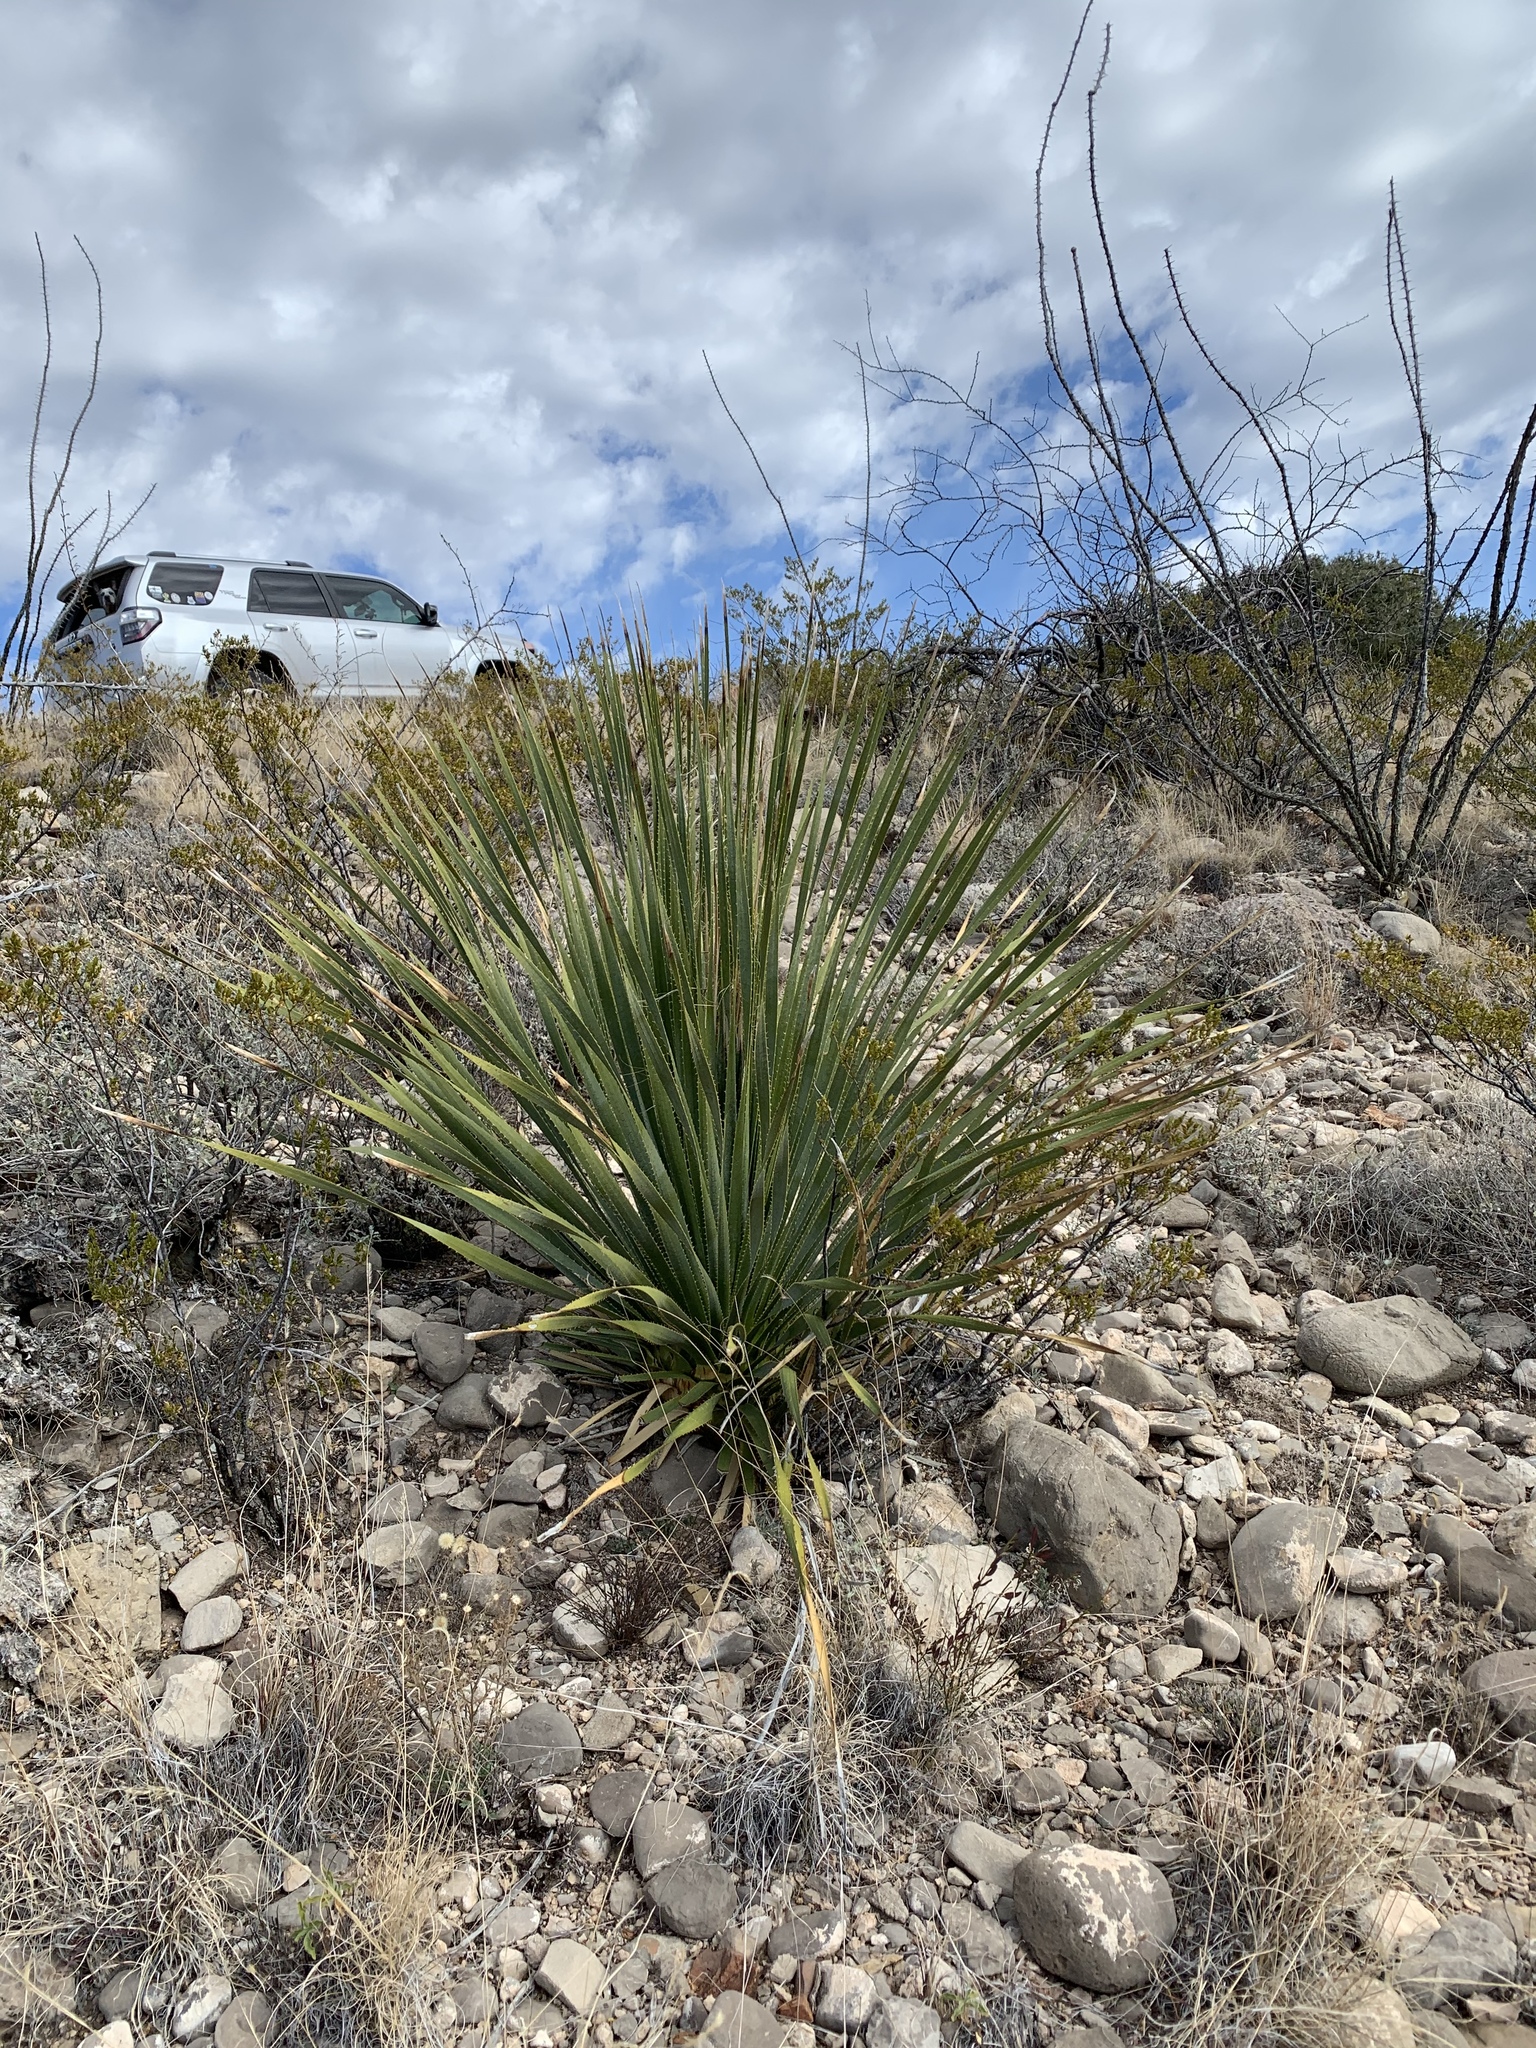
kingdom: Plantae
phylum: Tracheophyta
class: Liliopsida
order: Asparagales
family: Asparagaceae
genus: Dasylirion
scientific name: Dasylirion wheeleri
